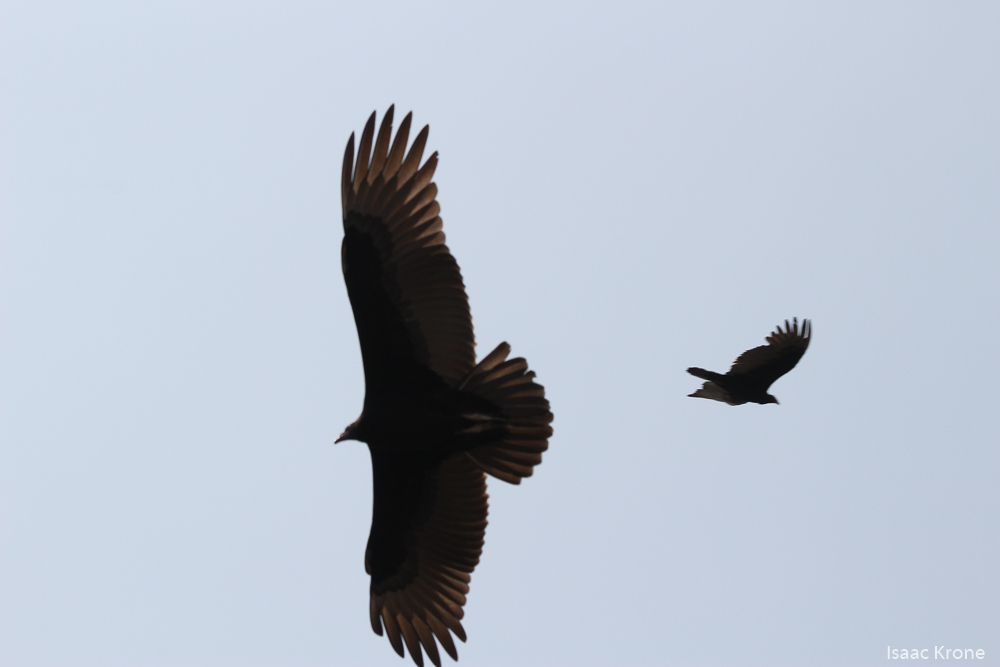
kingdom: Animalia
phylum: Chordata
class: Aves
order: Accipitriformes
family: Cathartidae
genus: Cathartes
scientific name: Cathartes aura
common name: Turkey vulture
